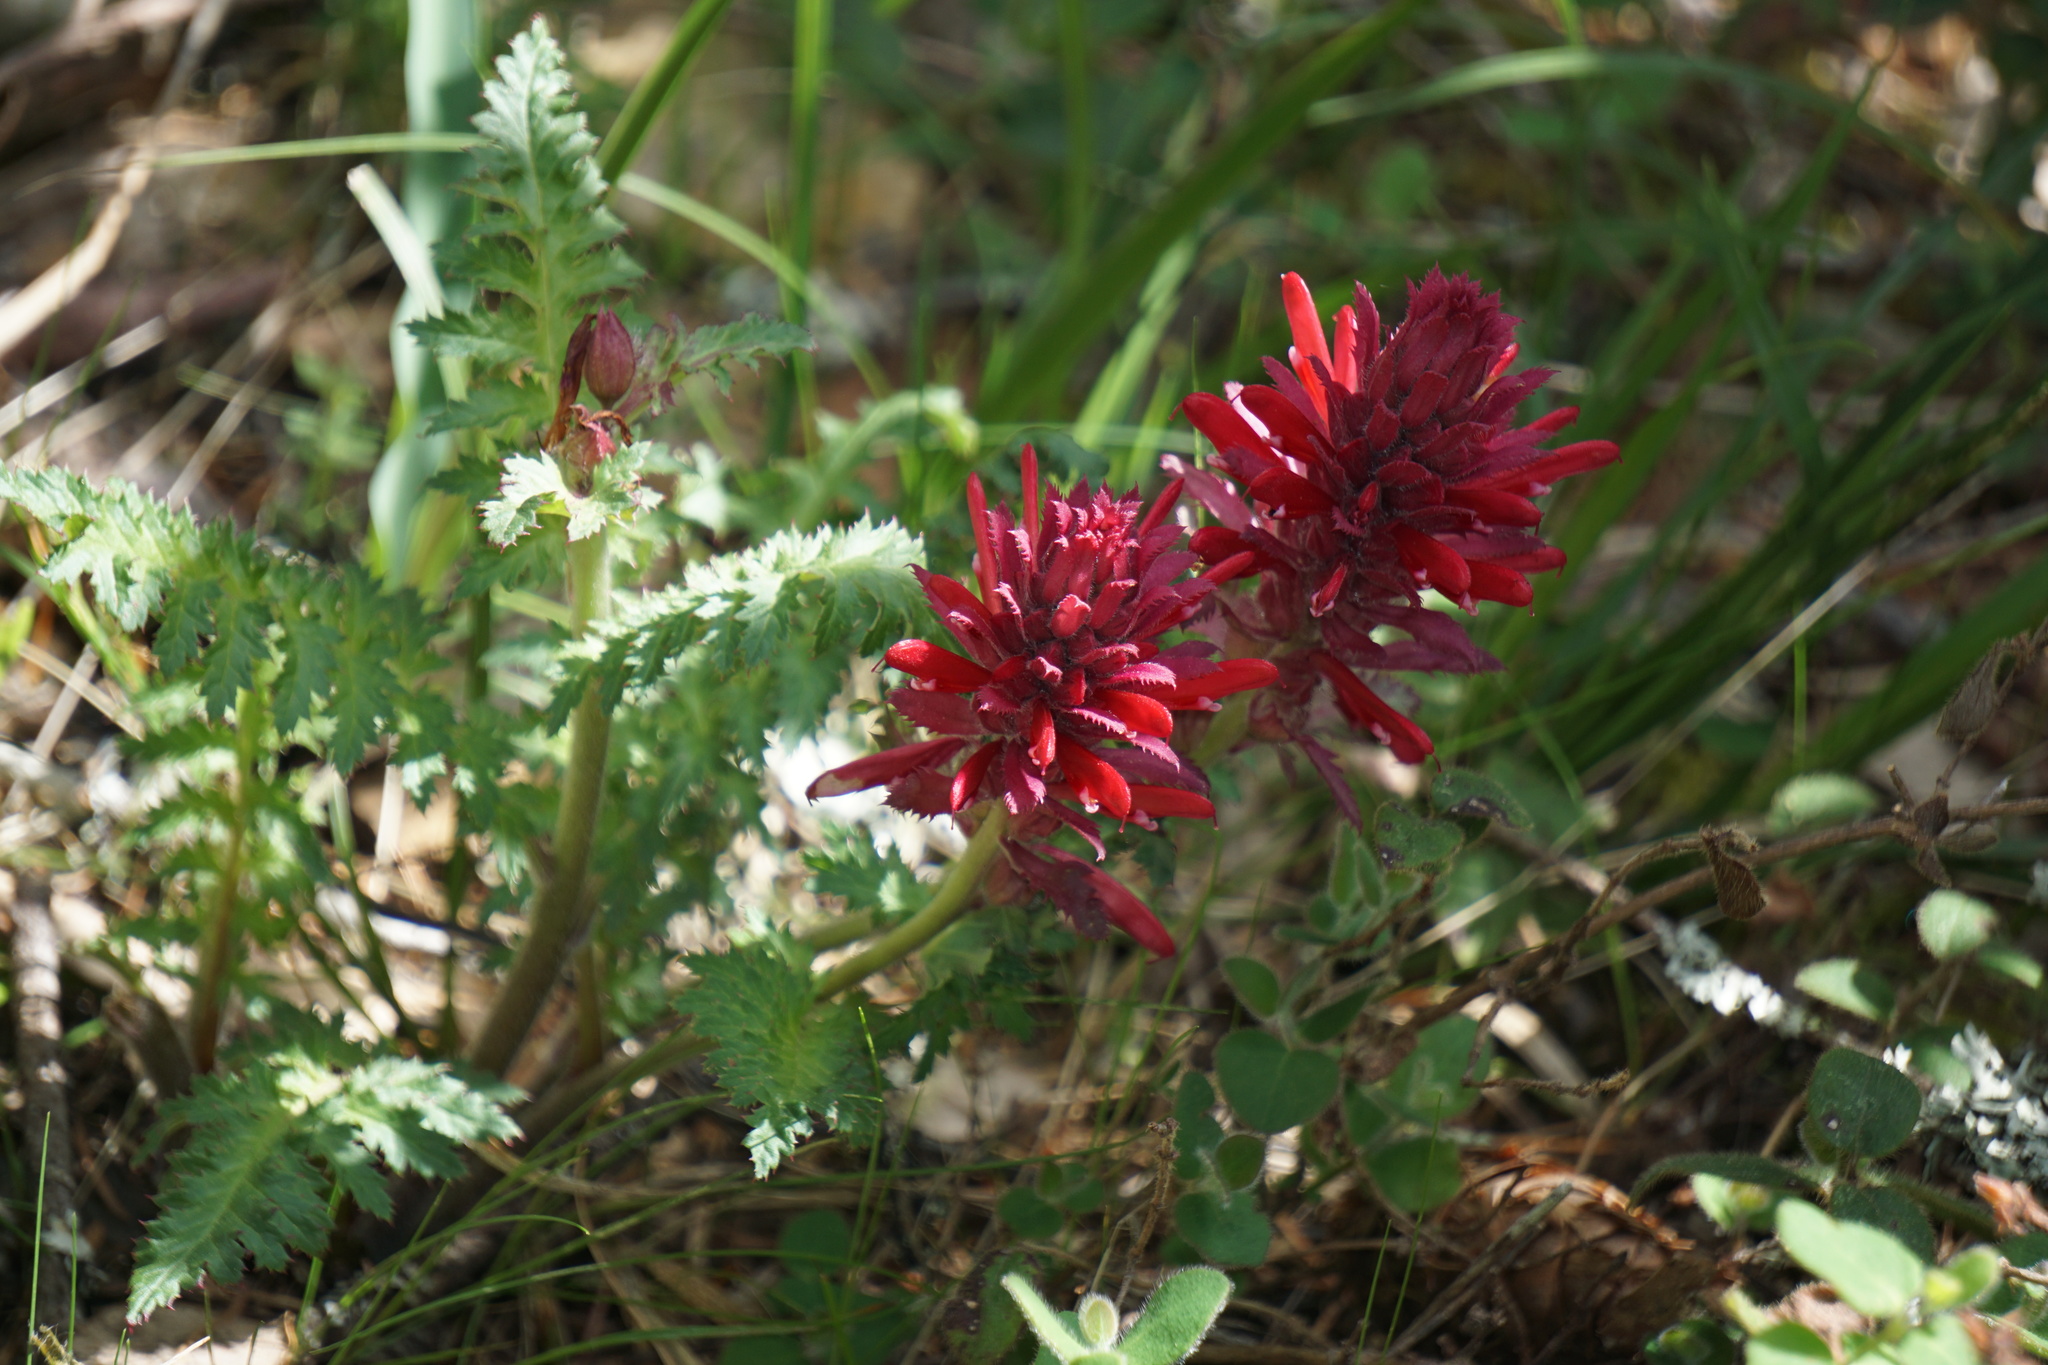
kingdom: Plantae
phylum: Tracheophyta
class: Magnoliopsida
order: Lamiales
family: Orobanchaceae
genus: Pedicularis
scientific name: Pedicularis densiflora
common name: Indian warrior
